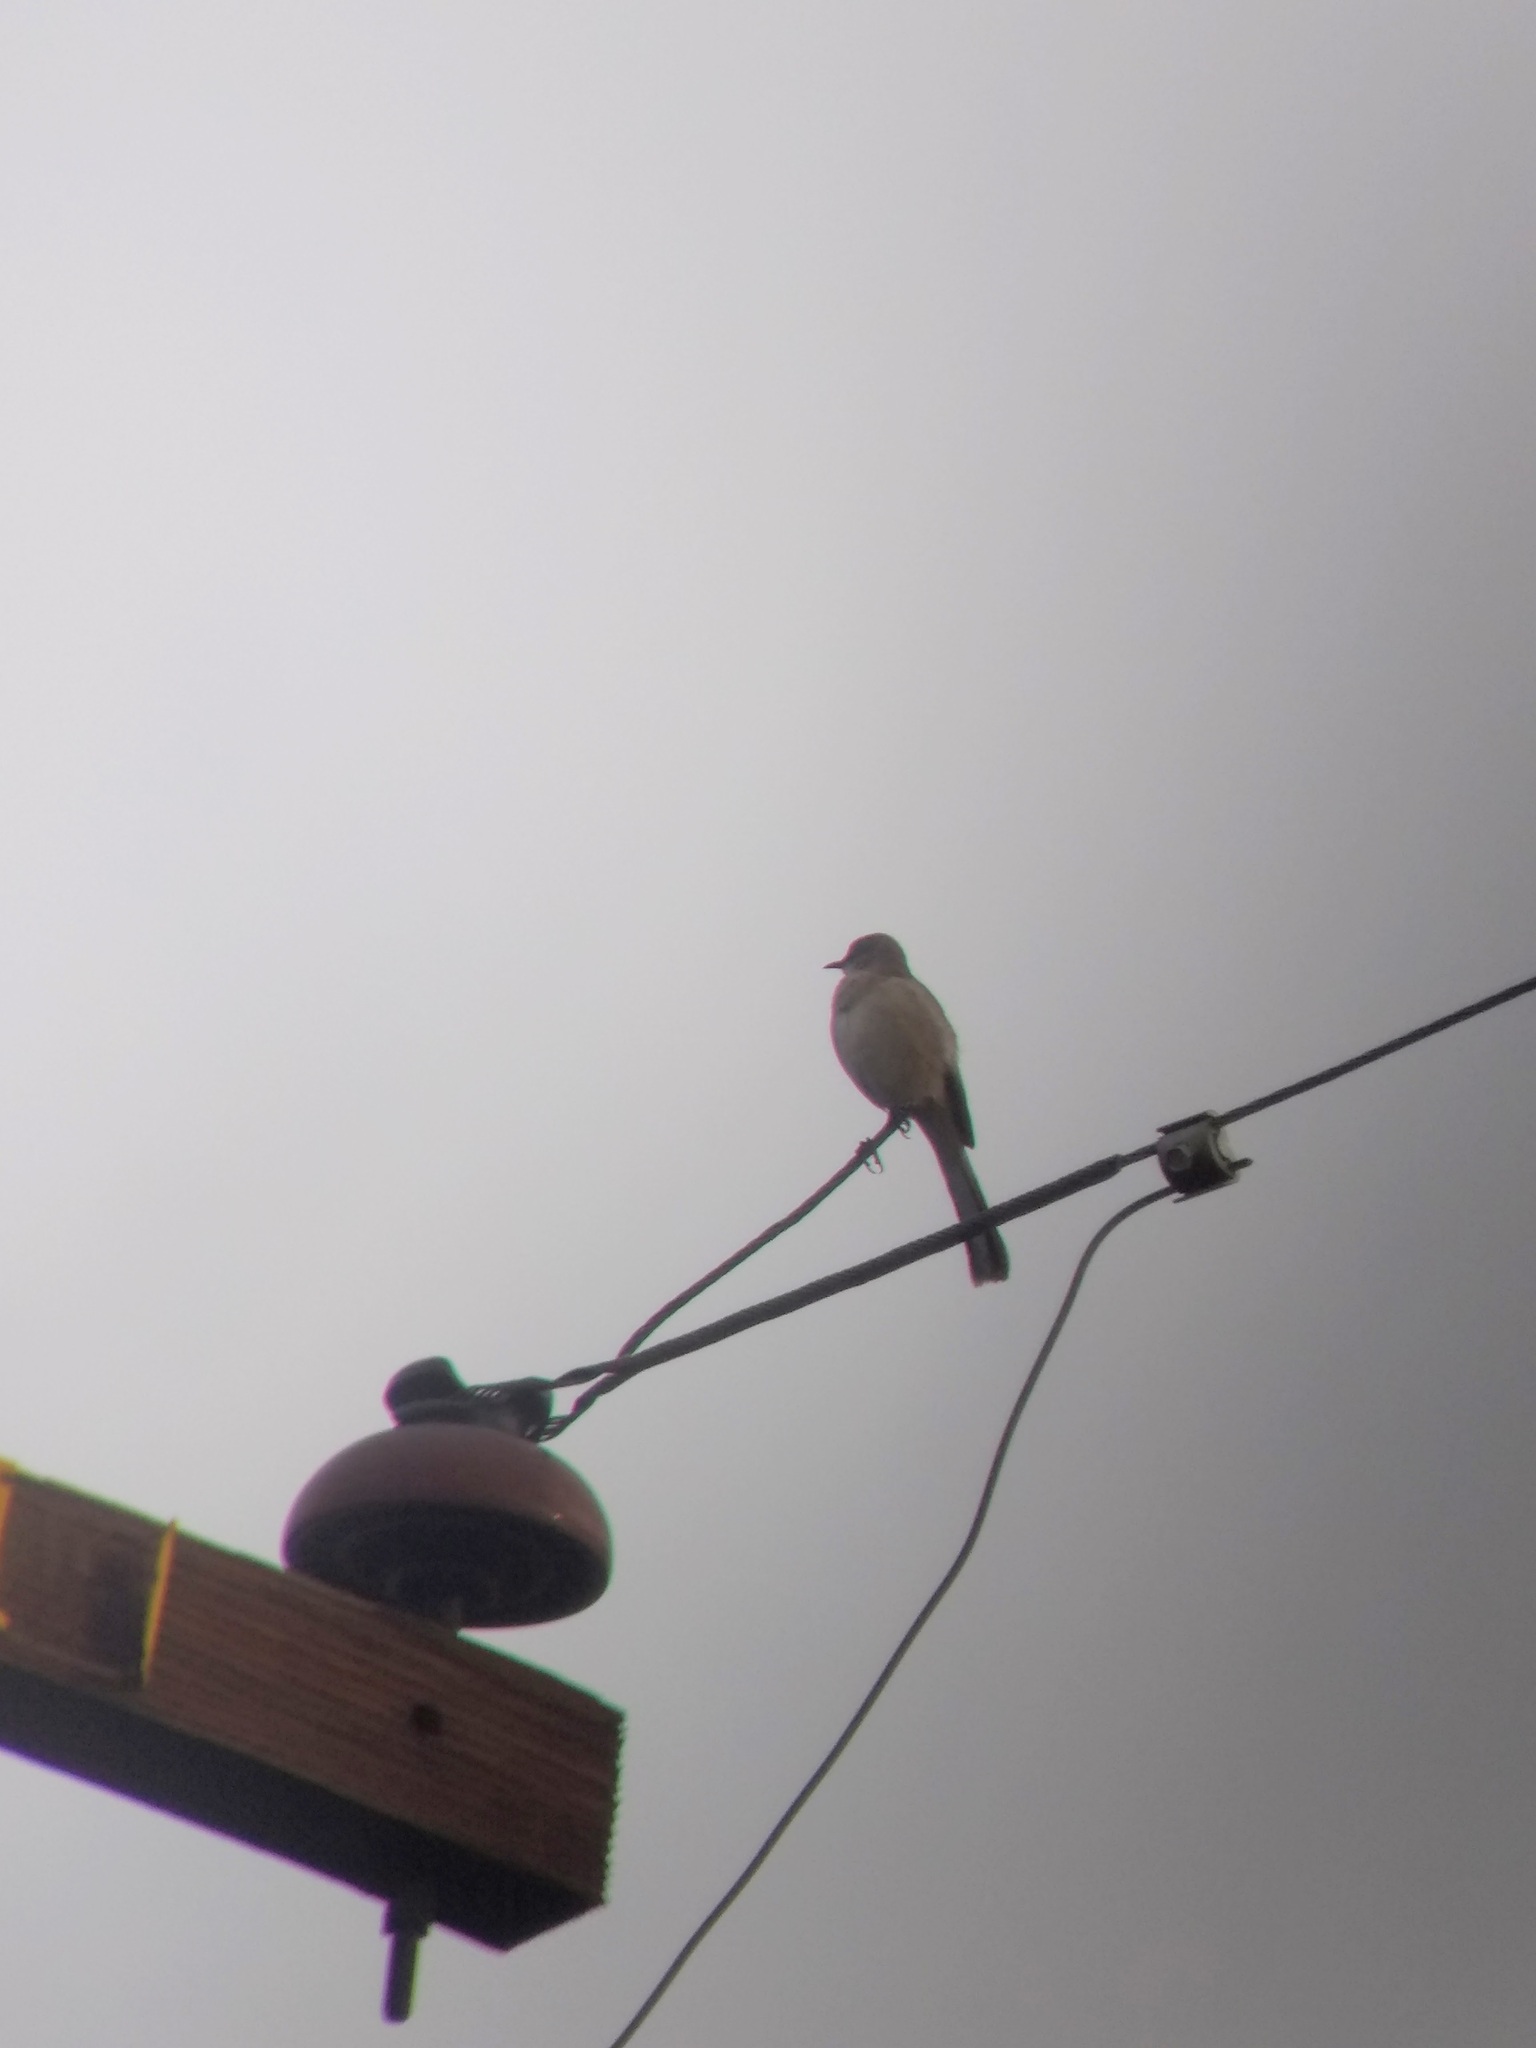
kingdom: Animalia
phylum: Chordata
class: Aves
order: Passeriformes
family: Mimidae
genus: Mimus
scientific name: Mimus polyglottos
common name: Northern mockingbird
